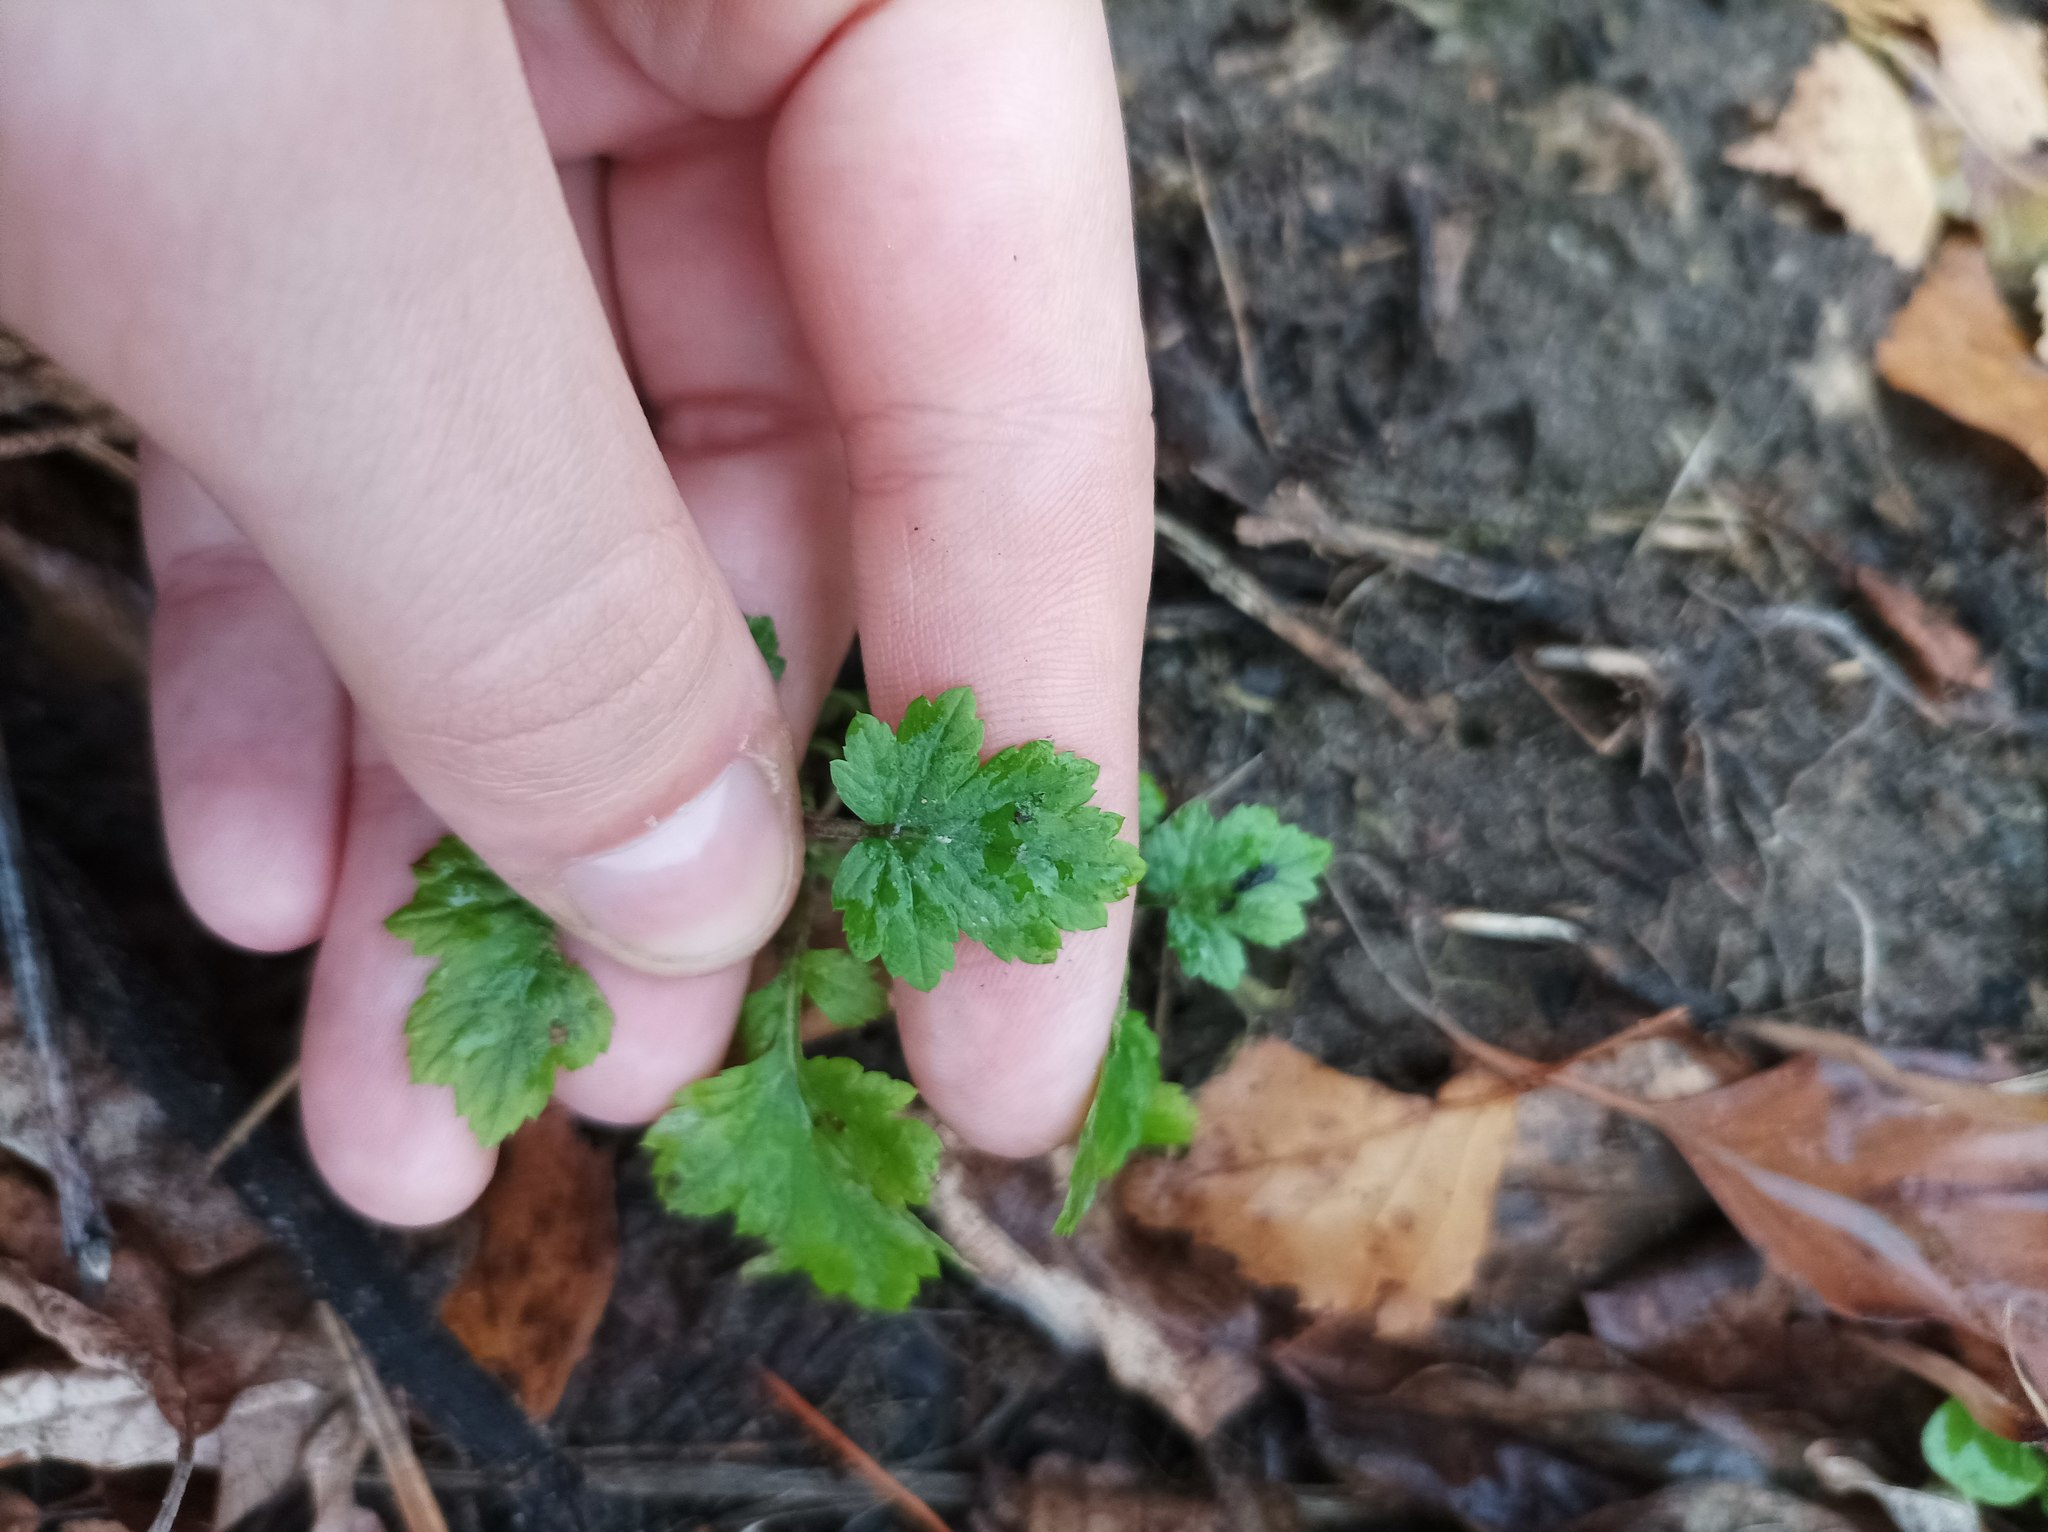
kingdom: Plantae
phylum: Tracheophyta
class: Magnoliopsida
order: Asterales
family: Asteraceae
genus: Artemisia
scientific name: Artemisia vulgaris
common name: Mugwort
